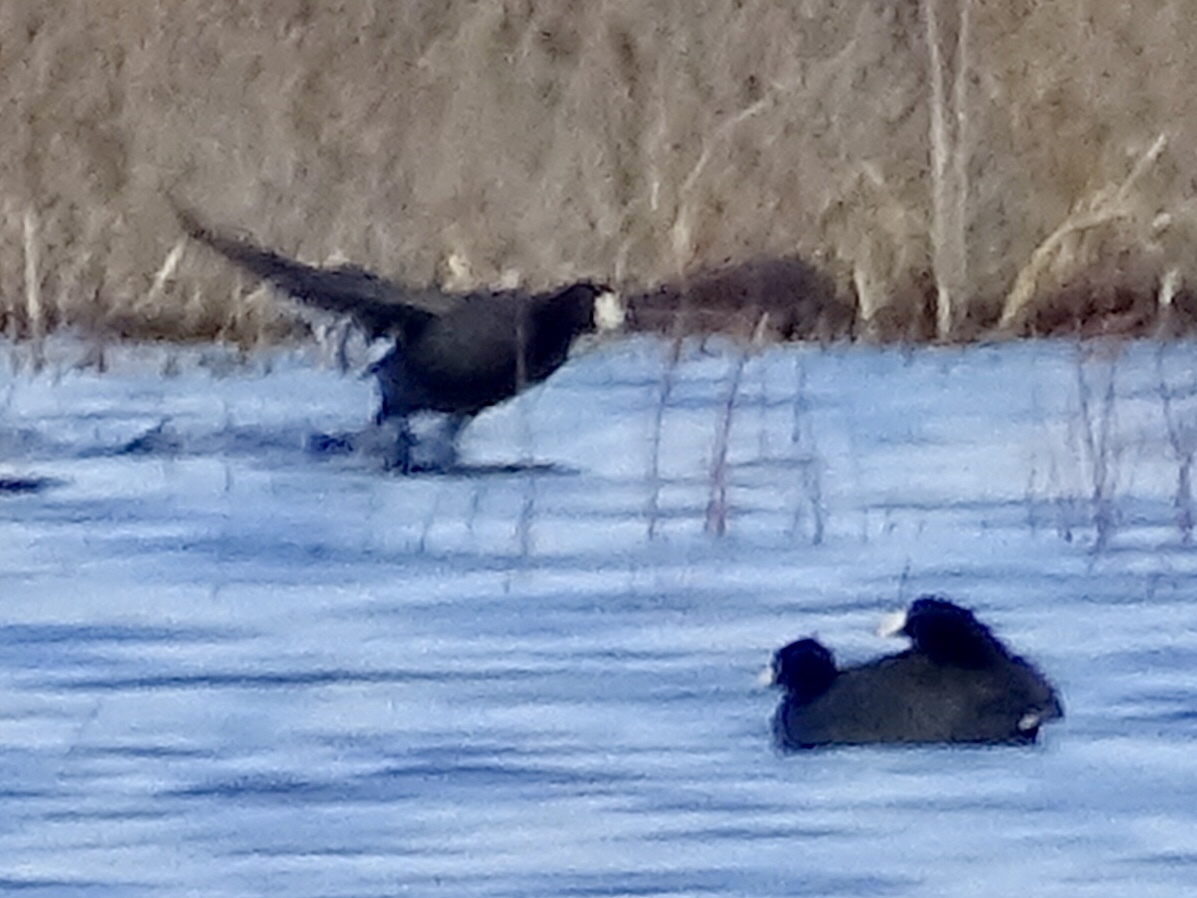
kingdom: Animalia
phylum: Chordata
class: Aves
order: Gruiformes
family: Rallidae
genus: Fulica
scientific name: Fulica americana
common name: American coot
